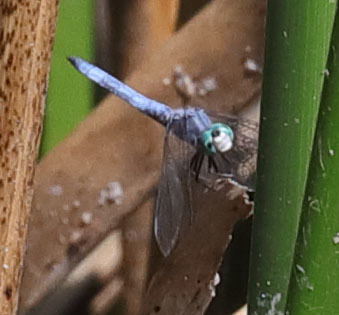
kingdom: Animalia
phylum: Arthropoda
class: Insecta
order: Odonata
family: Libellulidae
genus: Pachydiplax
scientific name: Pachydiplax longipennis
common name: Blue dasher
